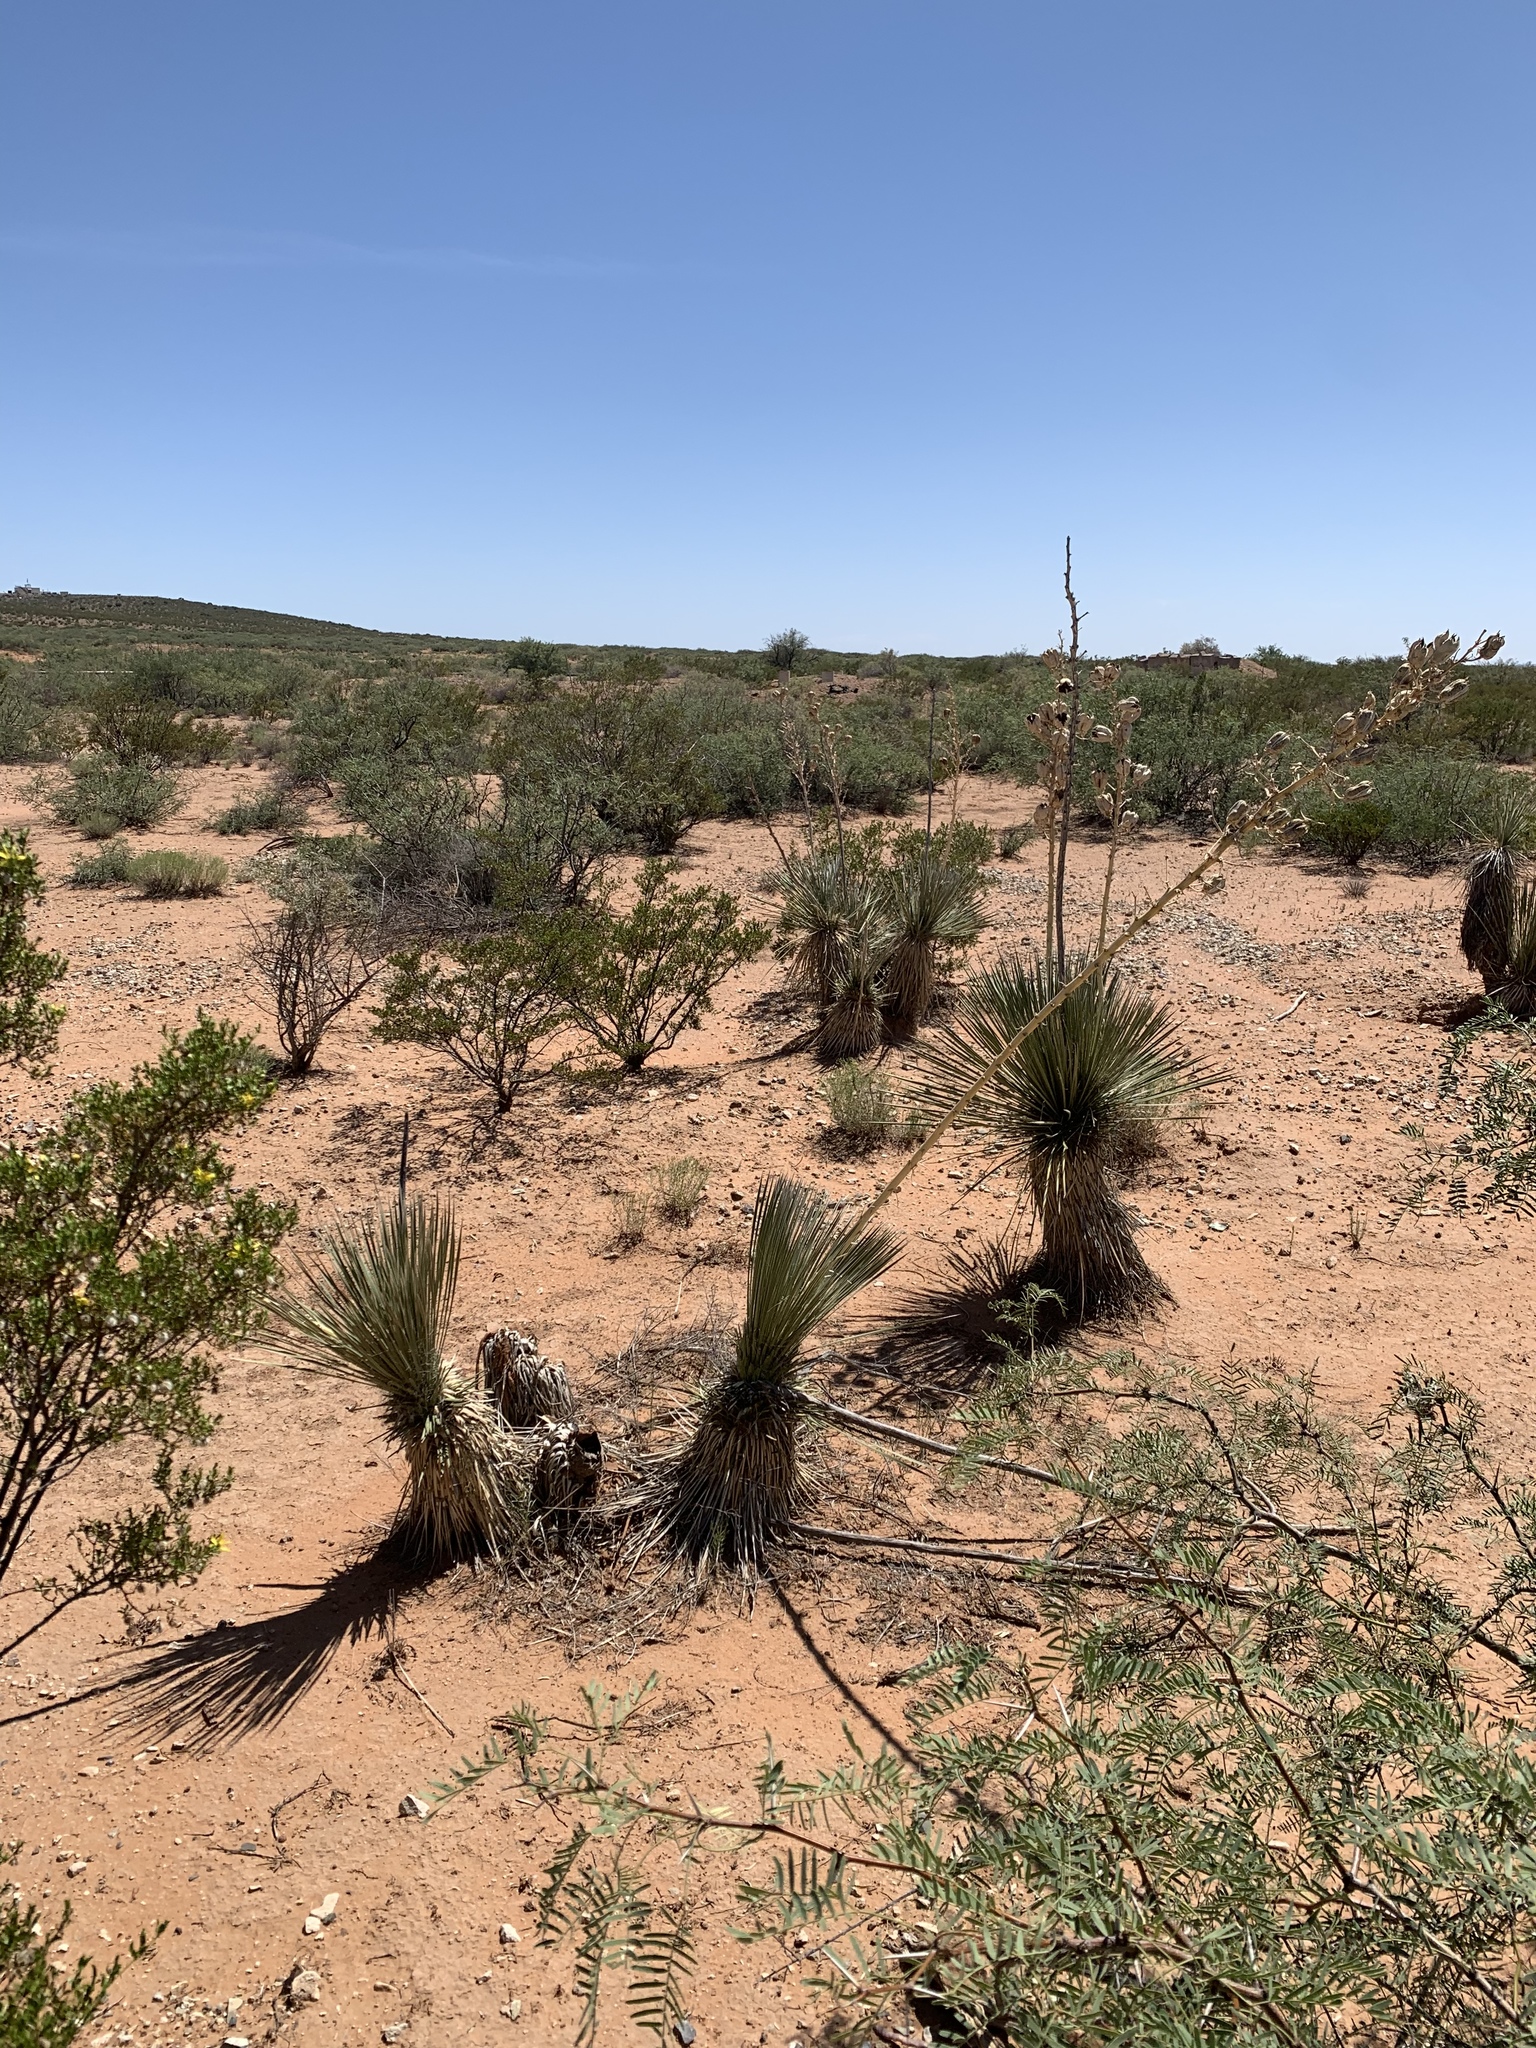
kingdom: Plantae
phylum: Tracheophyta
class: Liliopsida
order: Asparagales
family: Asparagaceae
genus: Yucca
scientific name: Yucca elata
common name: Palmella
